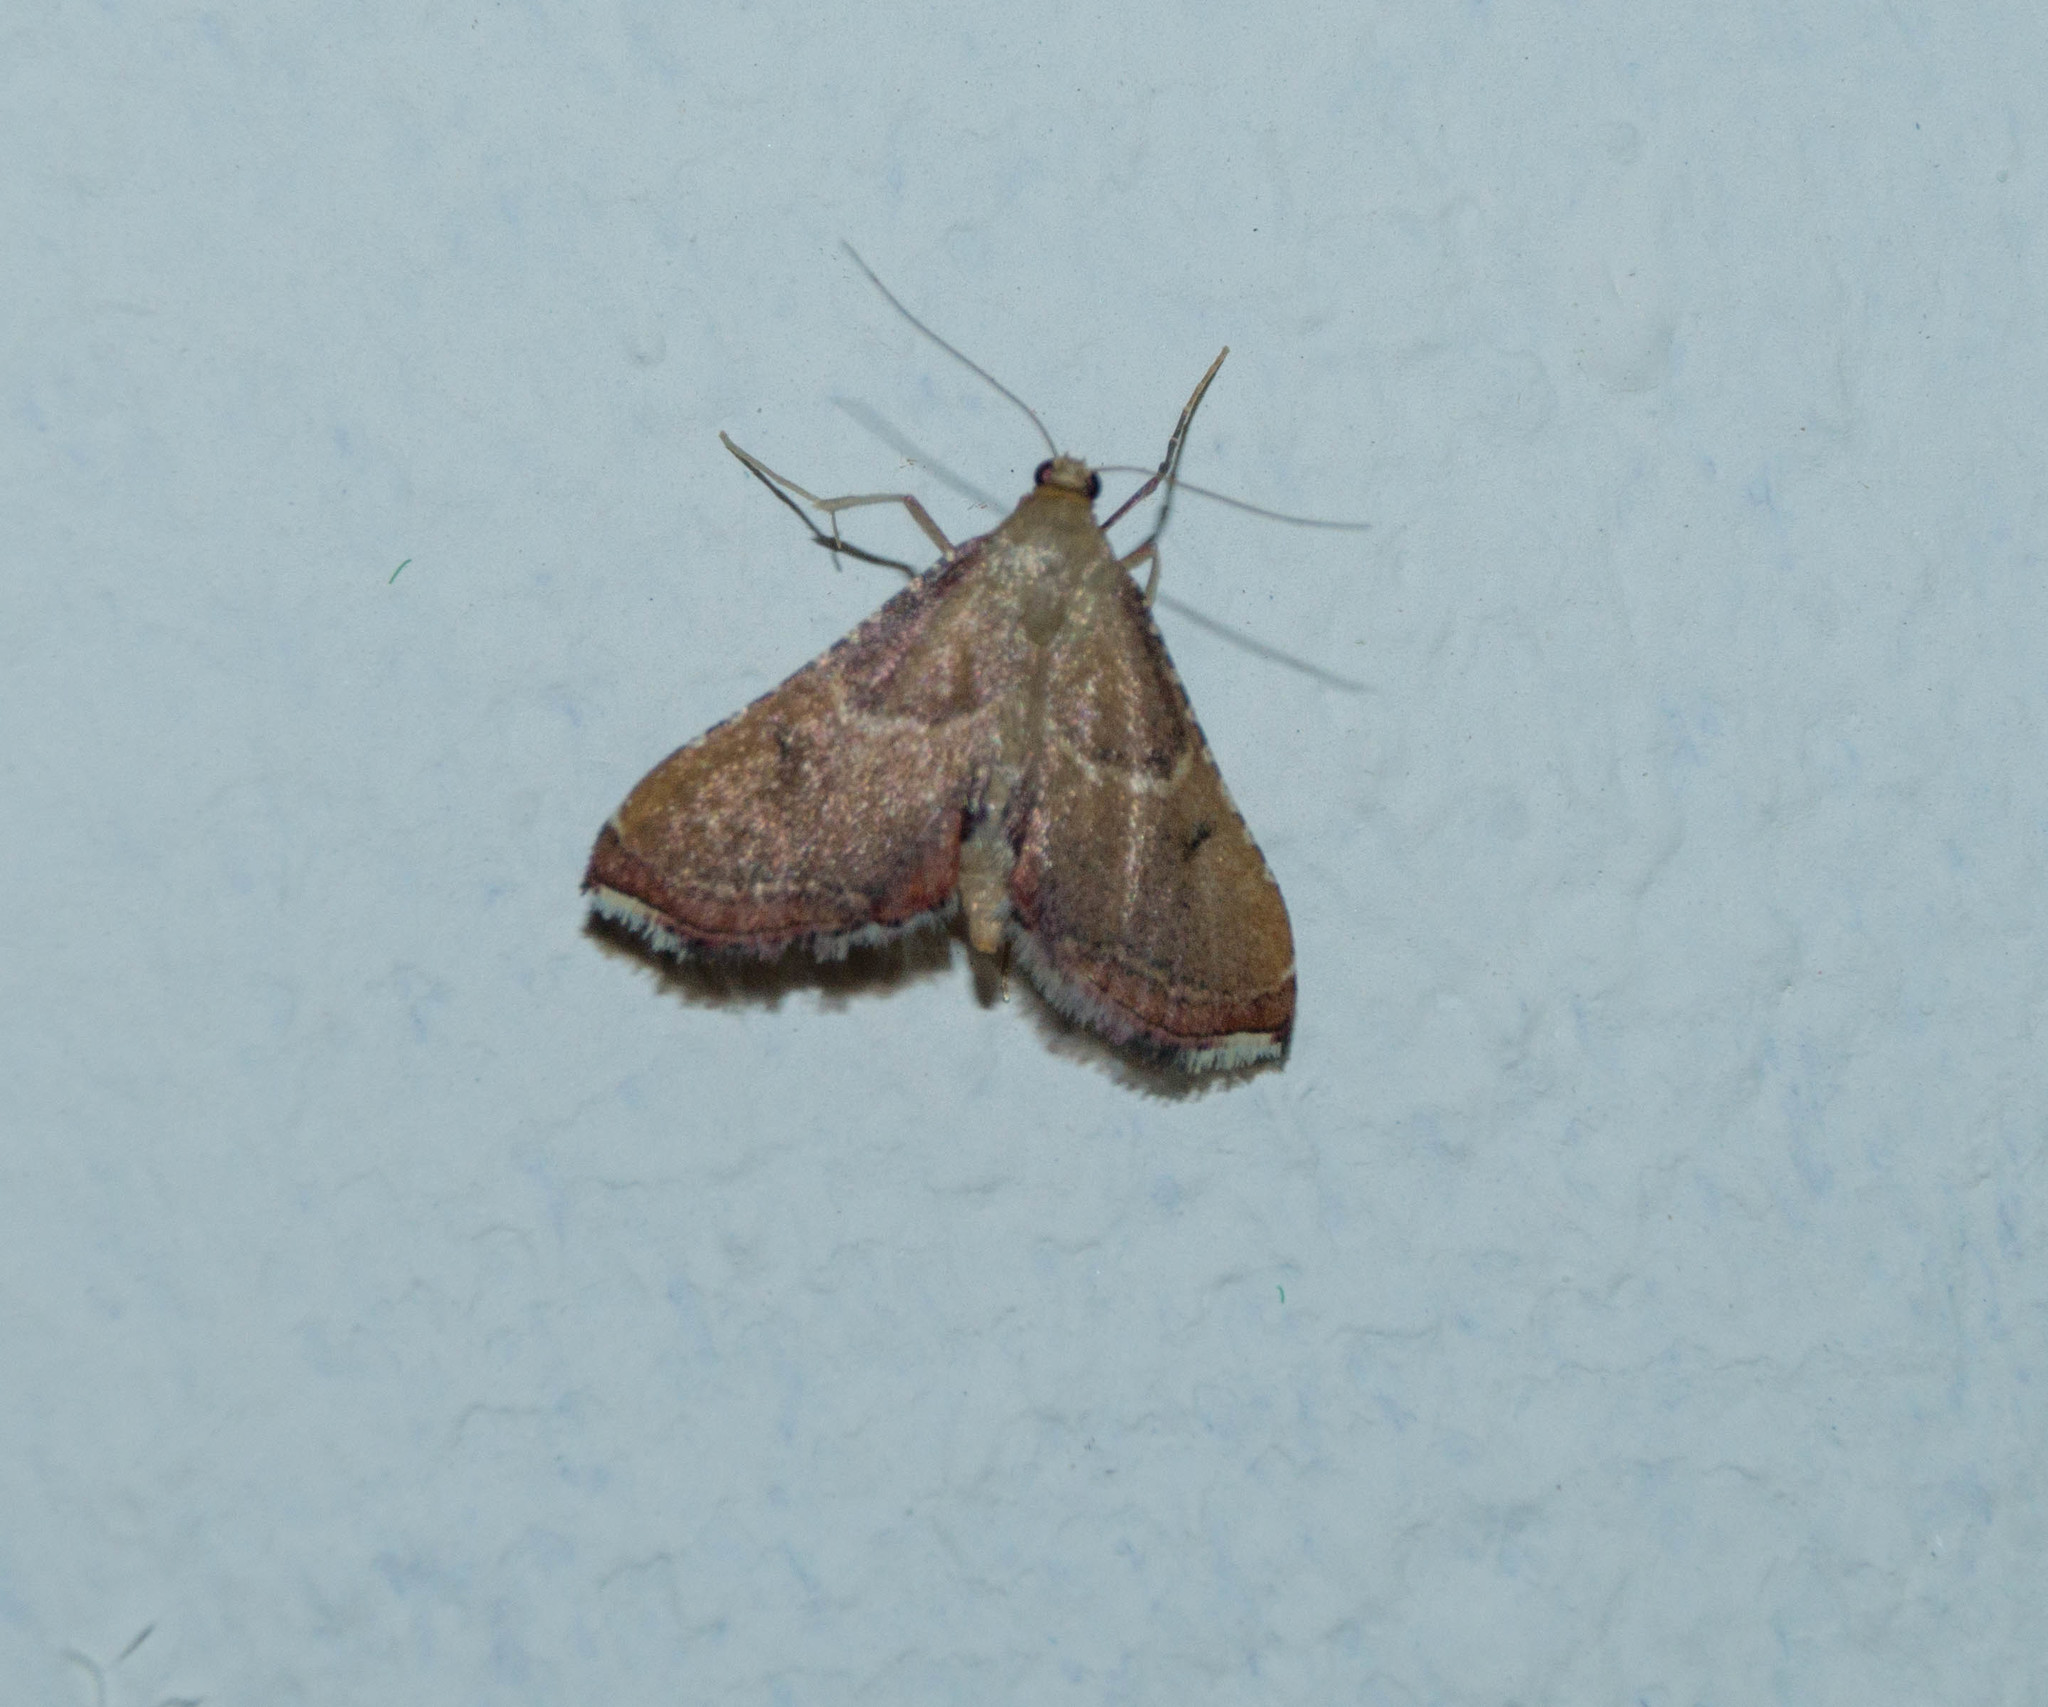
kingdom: Animalia
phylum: Arthropoda
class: Insecta
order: Lepidoptera
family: Pyralidae
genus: Endotricha
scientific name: Endotricha flammealis
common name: Rosy tabby
